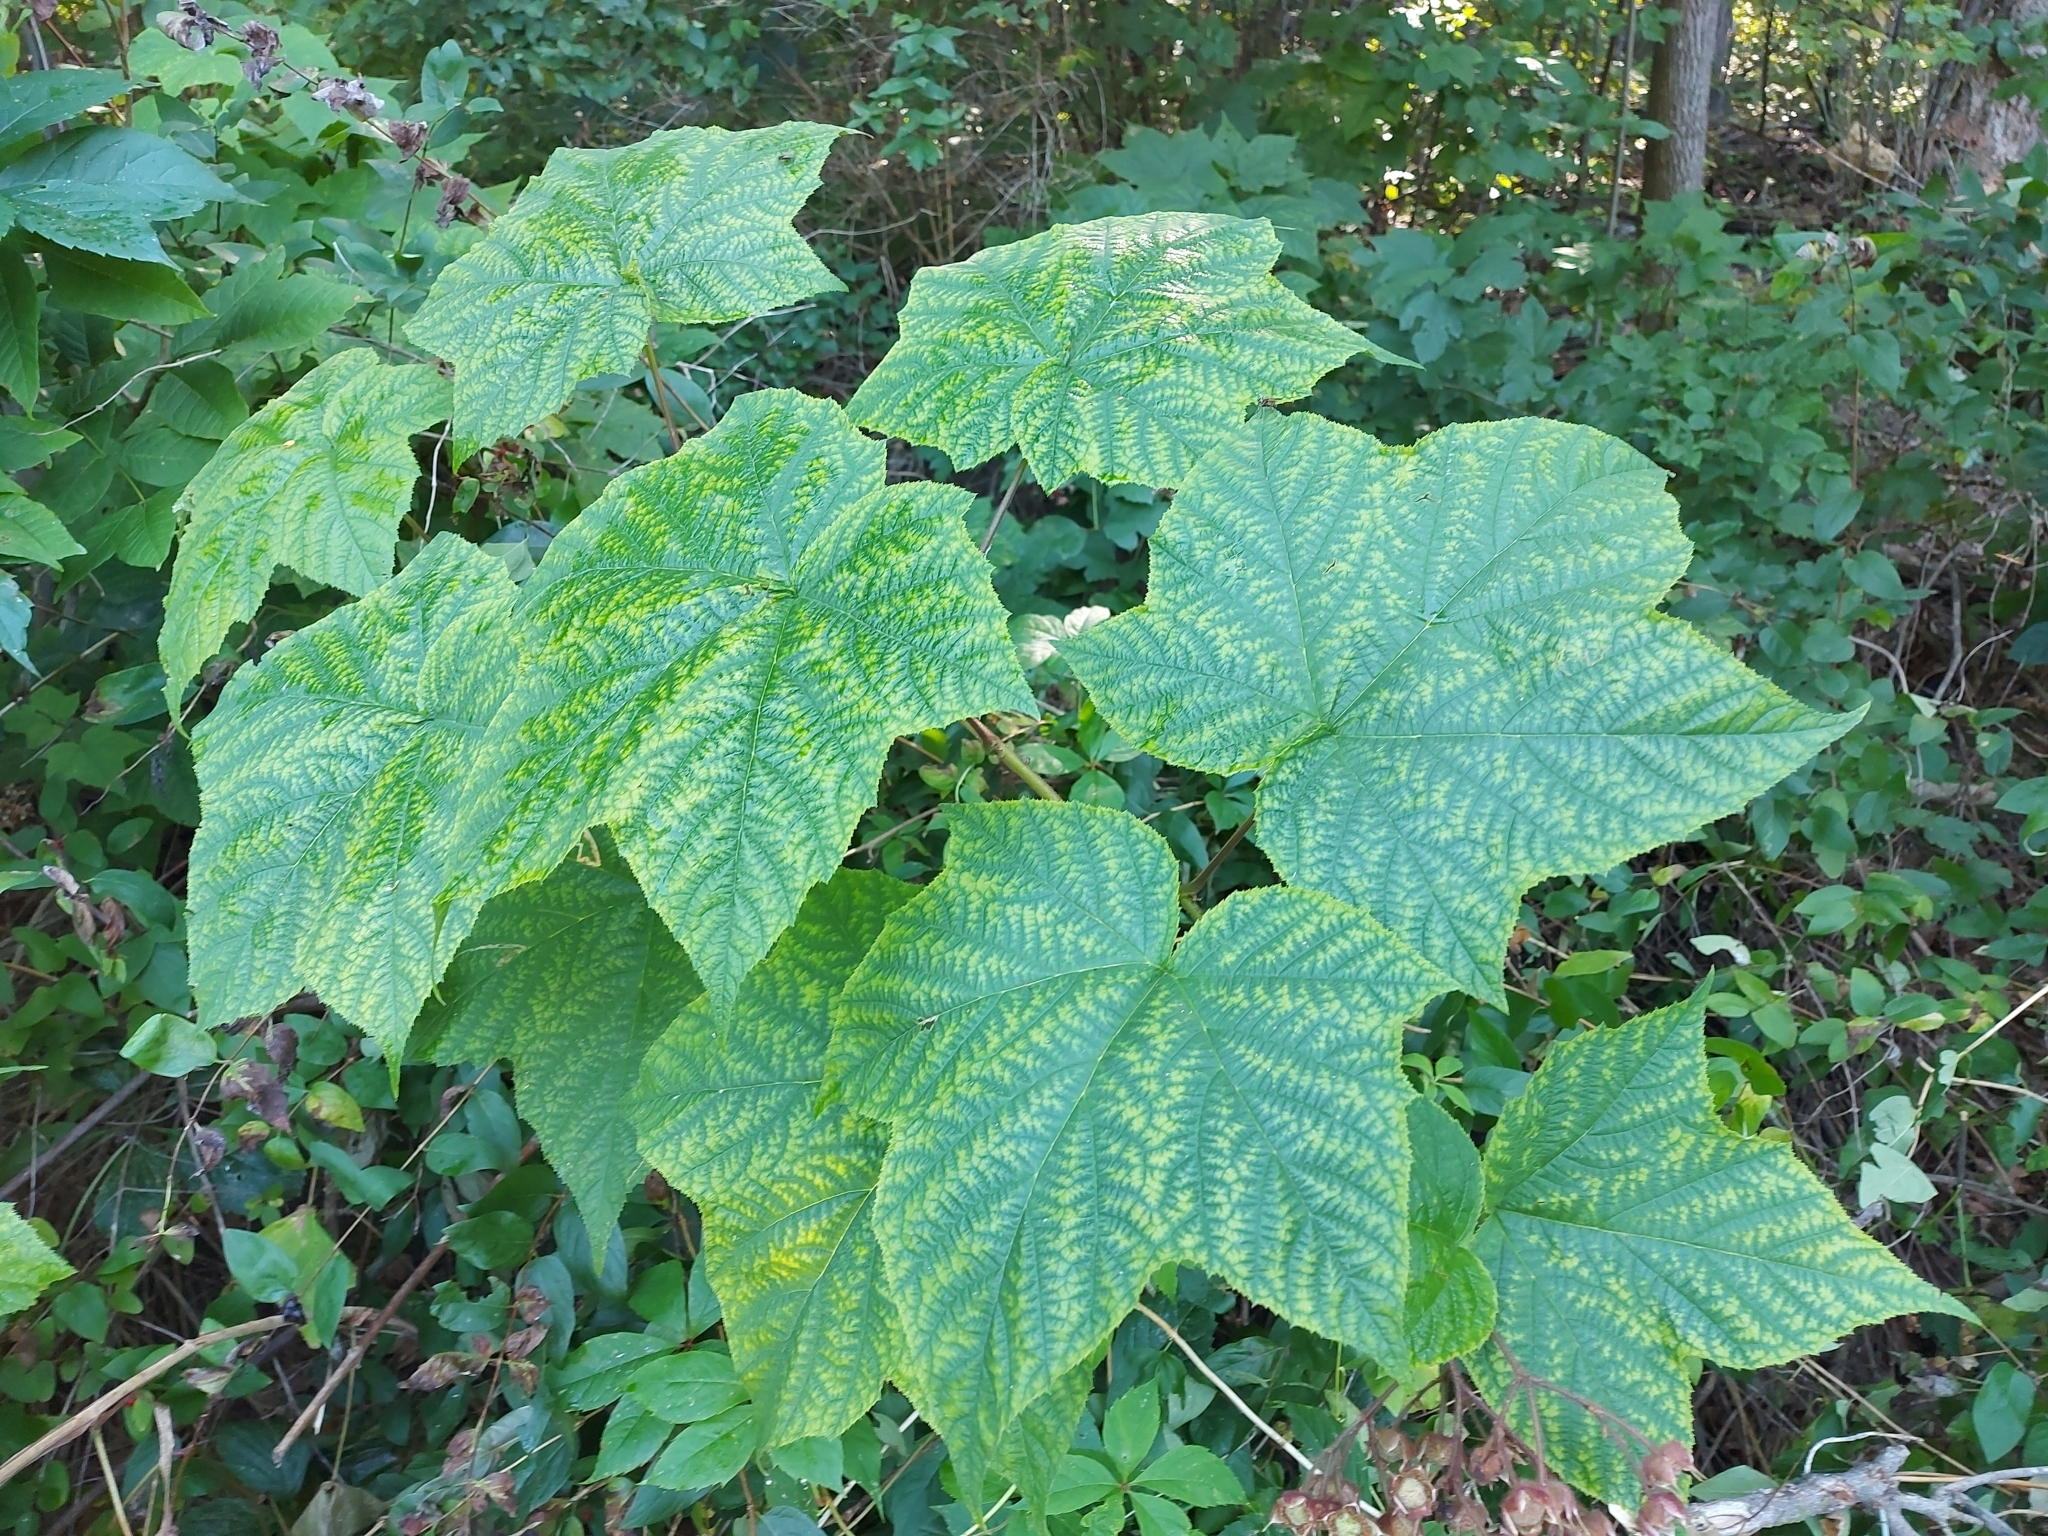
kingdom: Plantae
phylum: Tracheophyta
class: Magnoliopsida
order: Rosales
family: Rosaceae
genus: Rubus
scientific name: Rubus odoratus
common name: Purple-flowered raspberry
